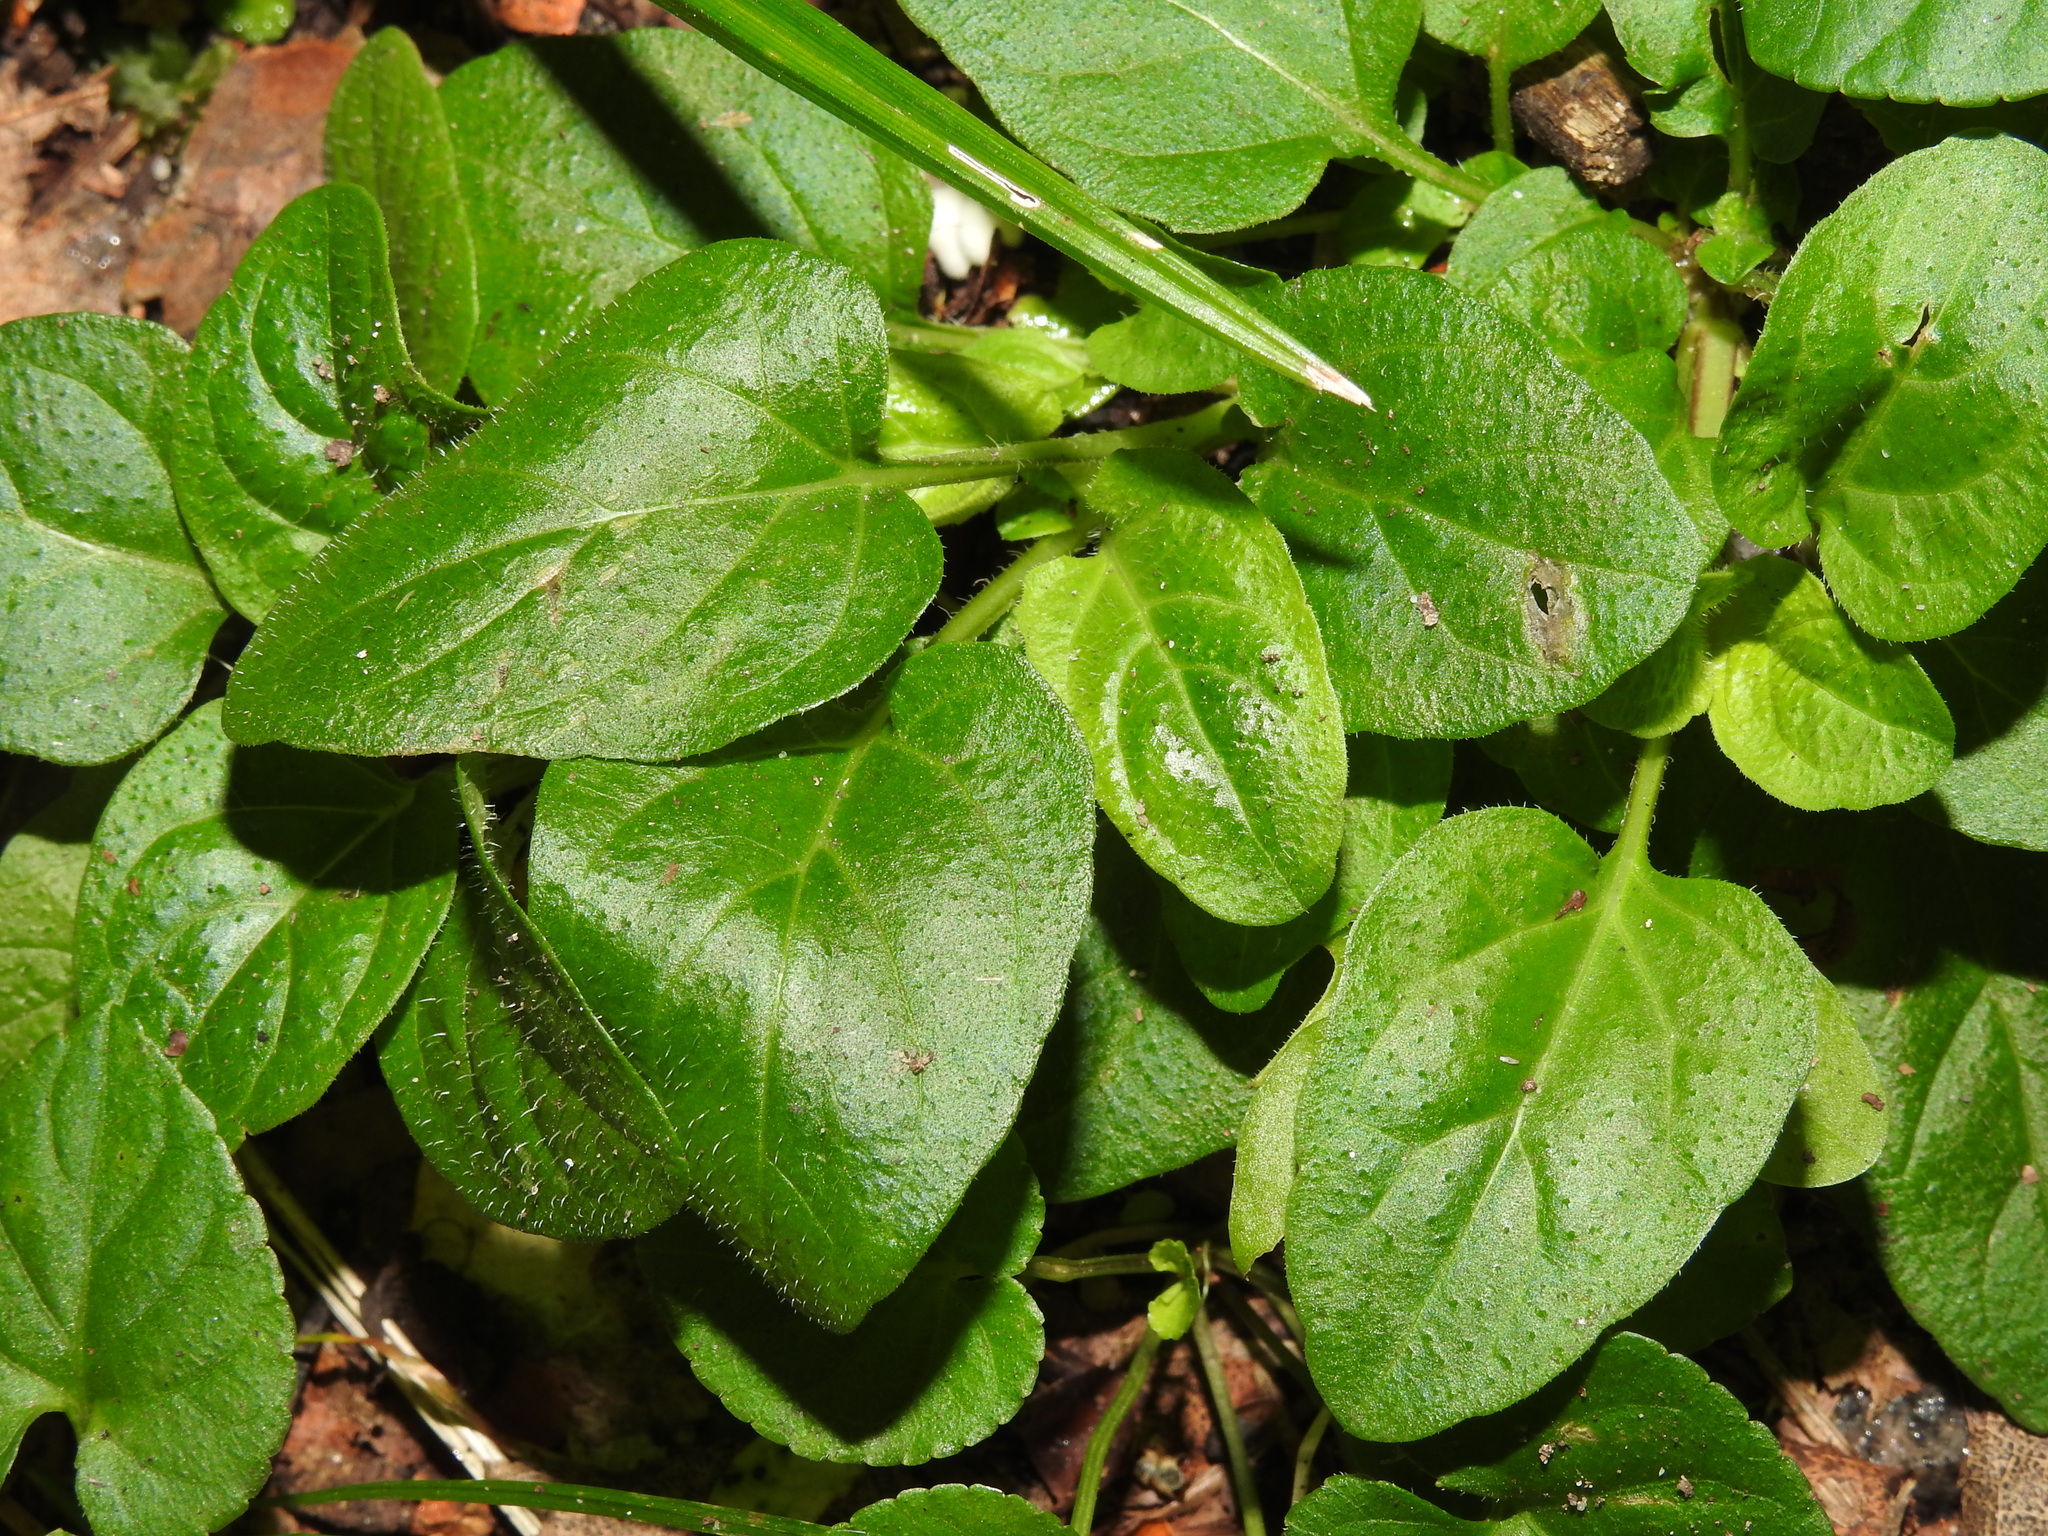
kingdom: Plantae
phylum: Tracheophyta
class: Magnoliopsida
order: Lamiales
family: Lamiaceae
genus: Prunella
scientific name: Prunella vulgaris
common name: Heal-all
